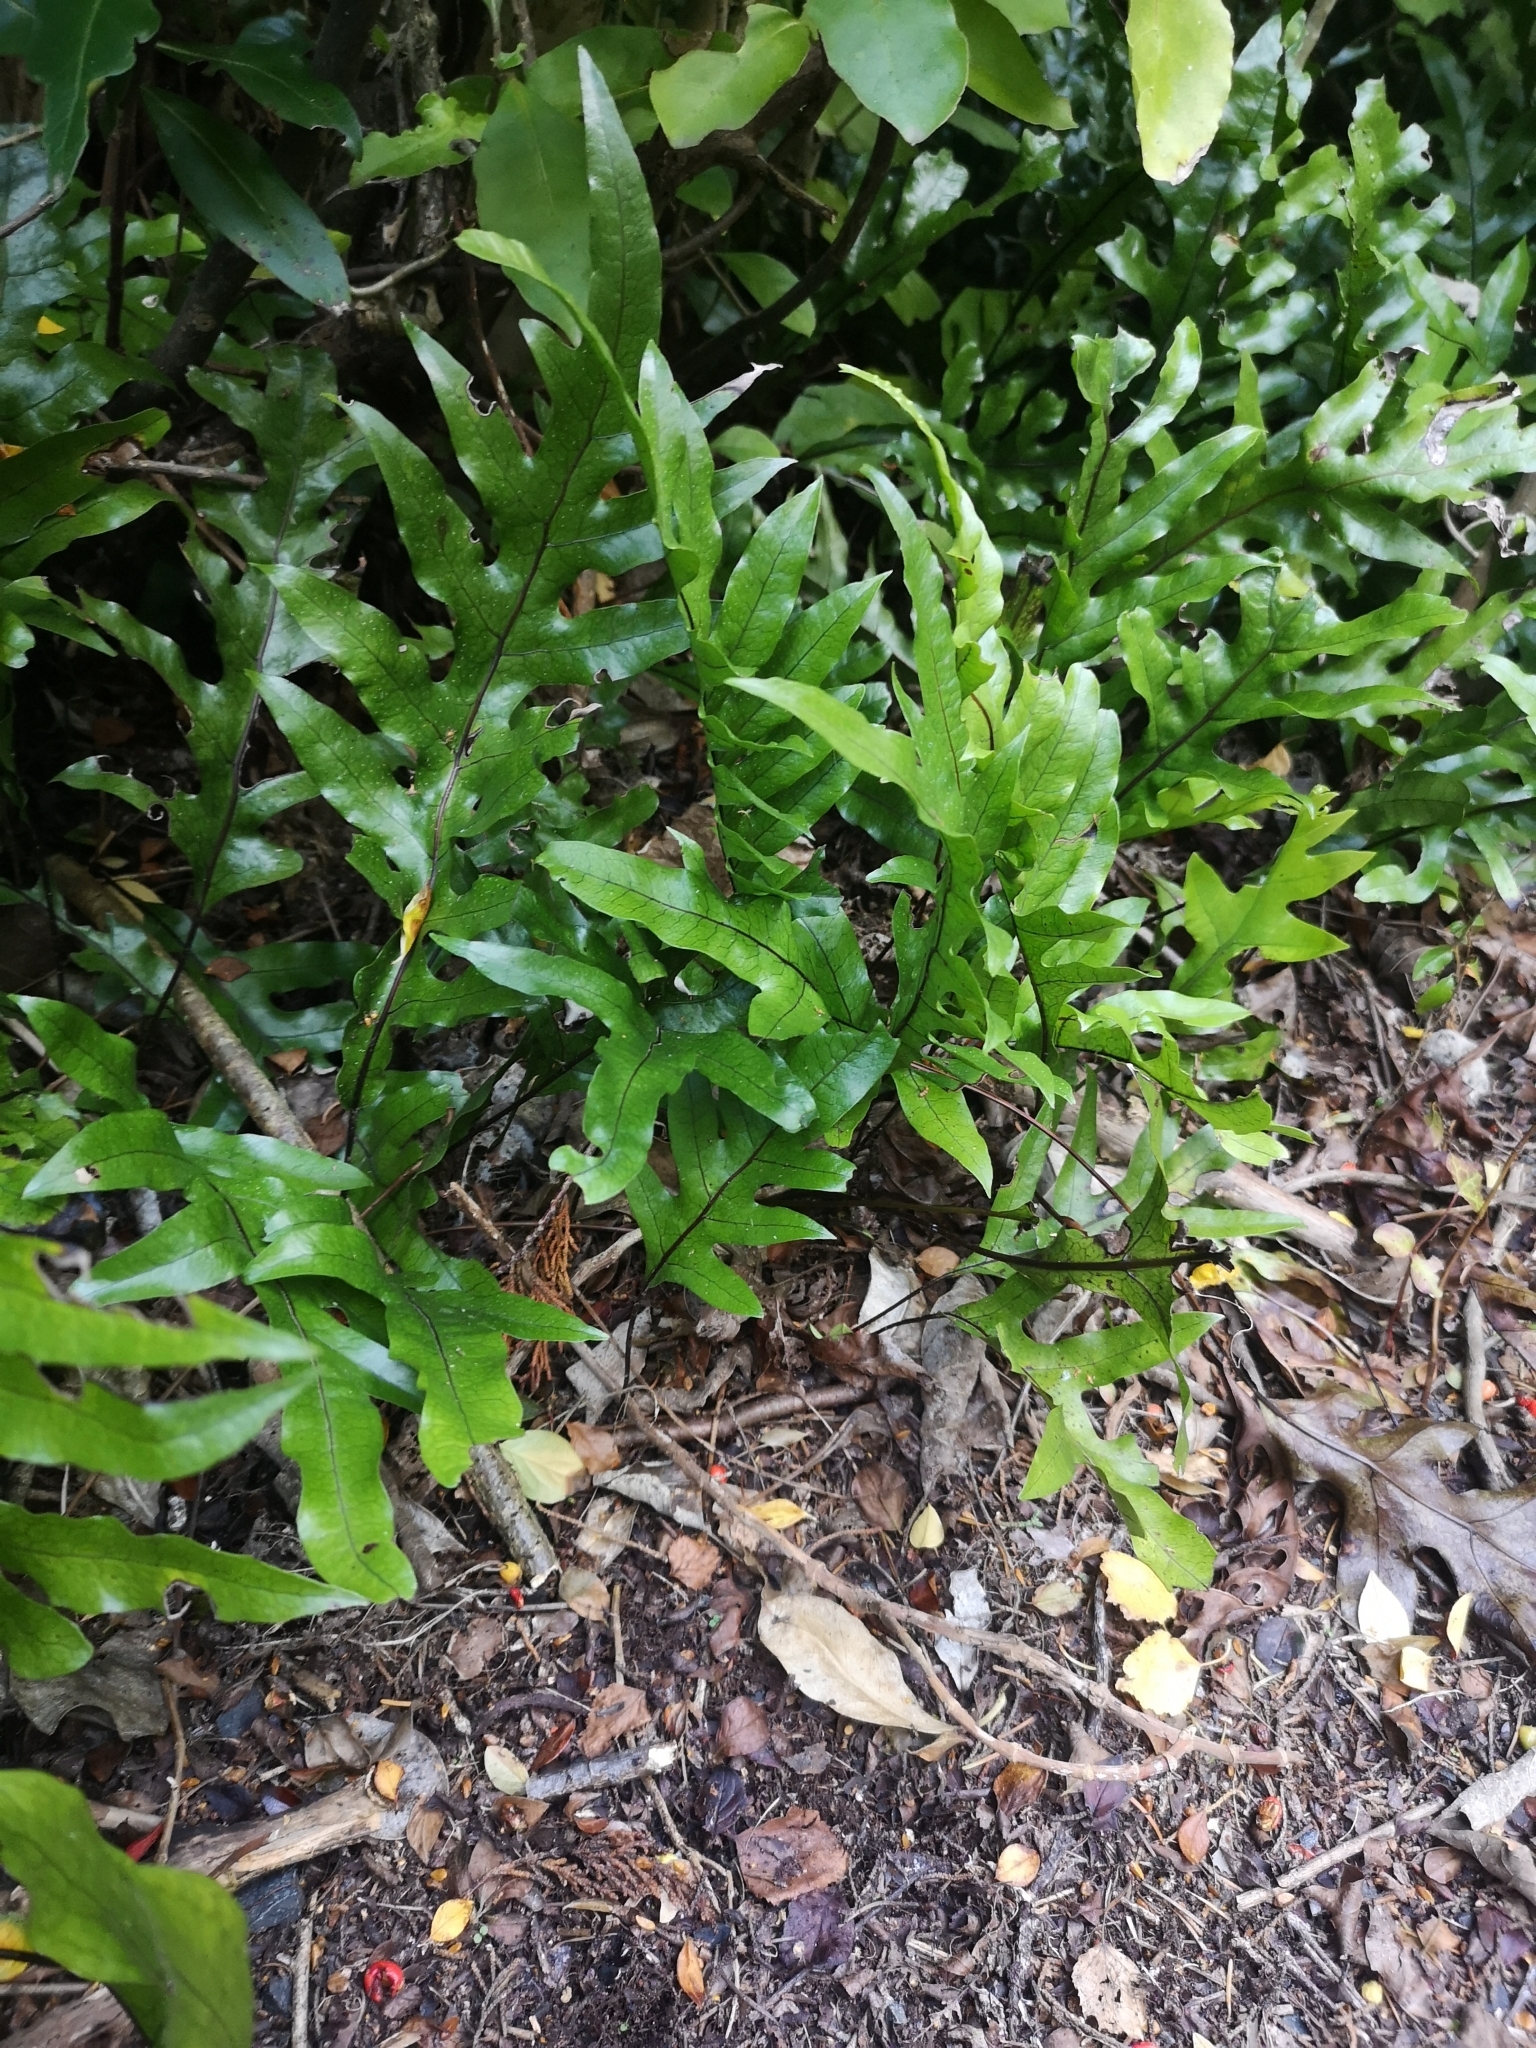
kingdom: Plantae
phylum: Tracheophyta
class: Polypodiopsida
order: Polypodiales
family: Polypodiaceae
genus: Lecanopteris
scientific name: Lecanopteris pustulata
